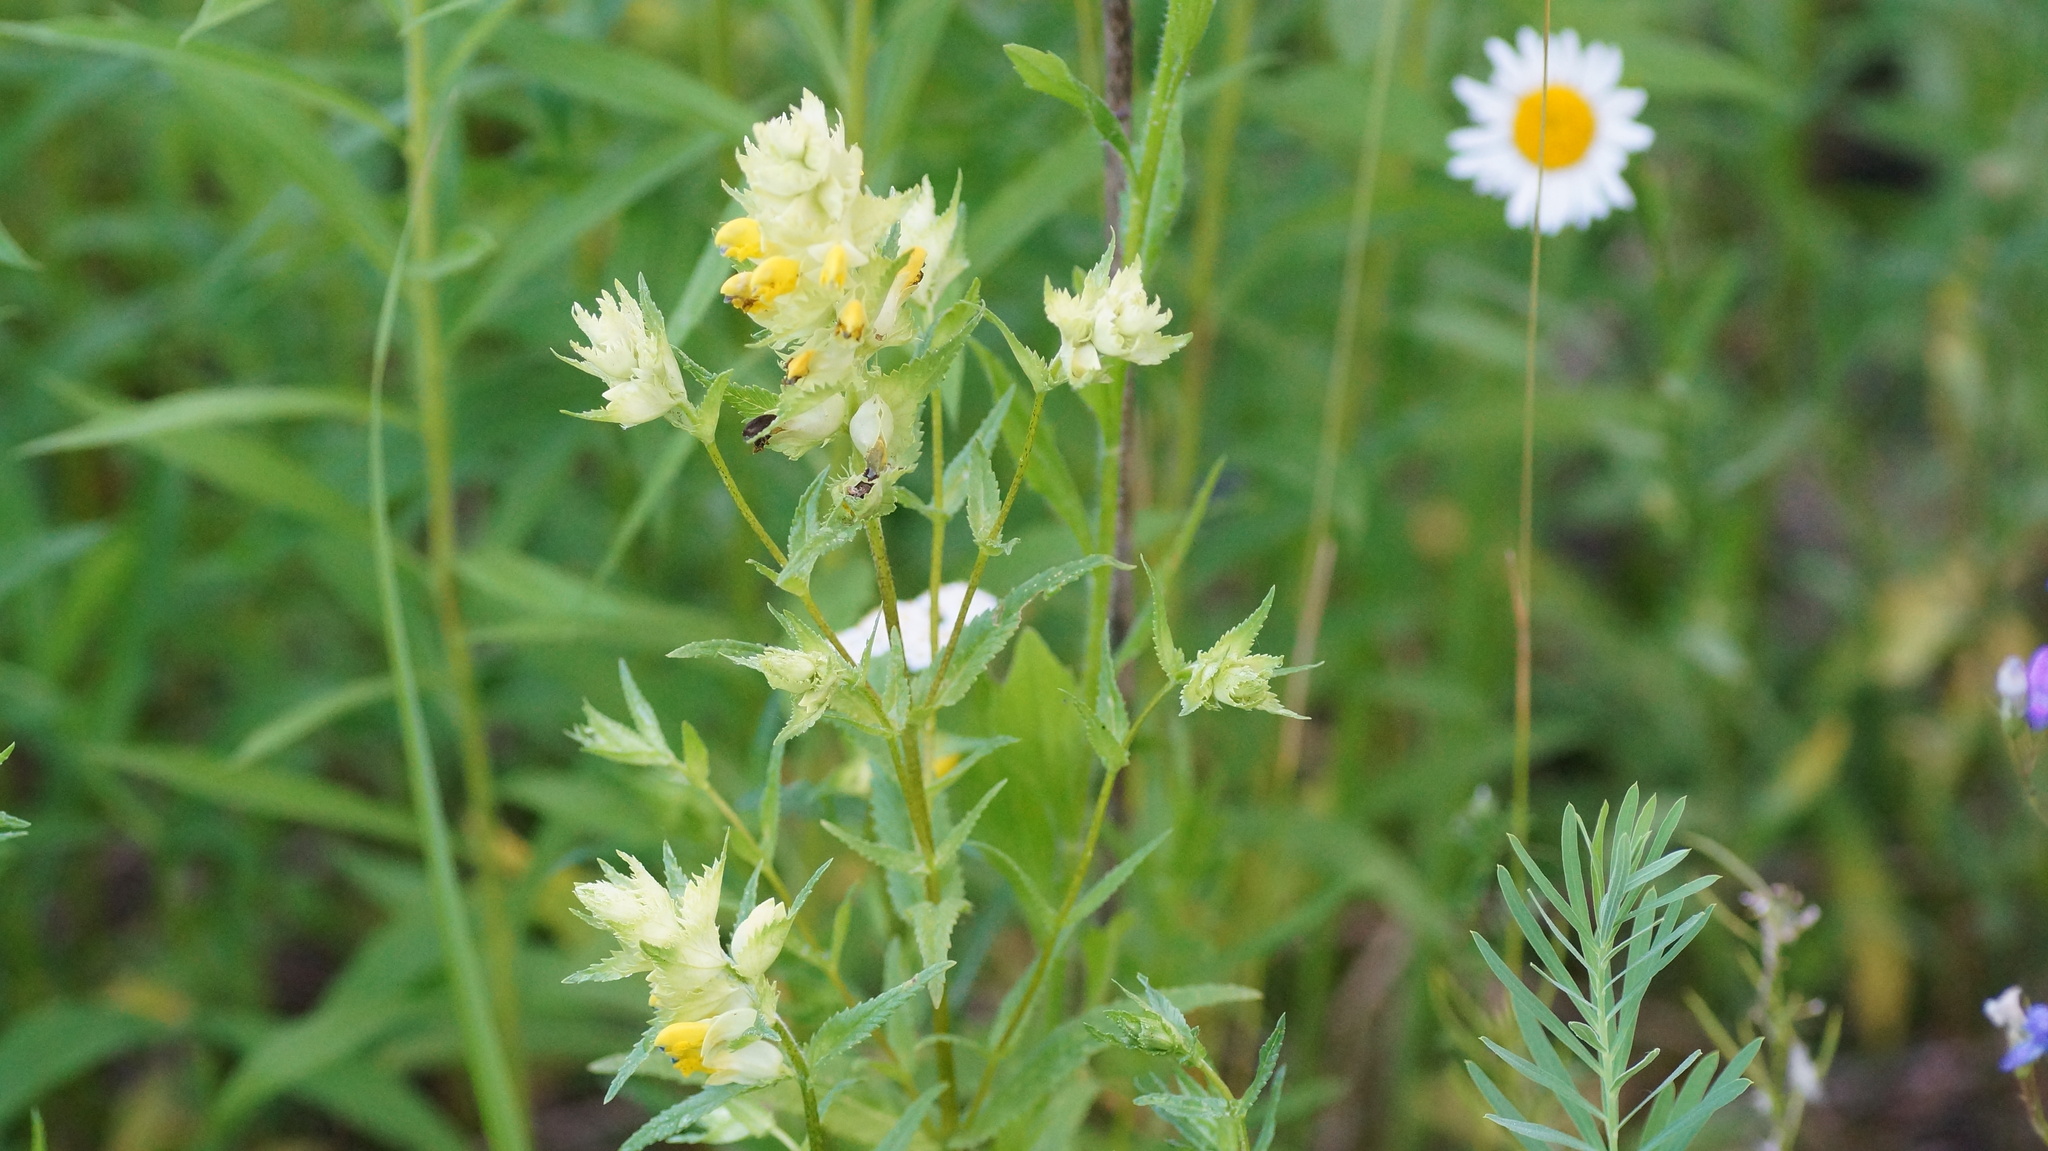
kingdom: Plantae
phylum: Tracheophyta
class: Magnoliopsida
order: Lamiales
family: Orobanchaceae
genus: Rhinanthus
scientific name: Rhinanthus serotinus
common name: Late-flowering yellow rattle
